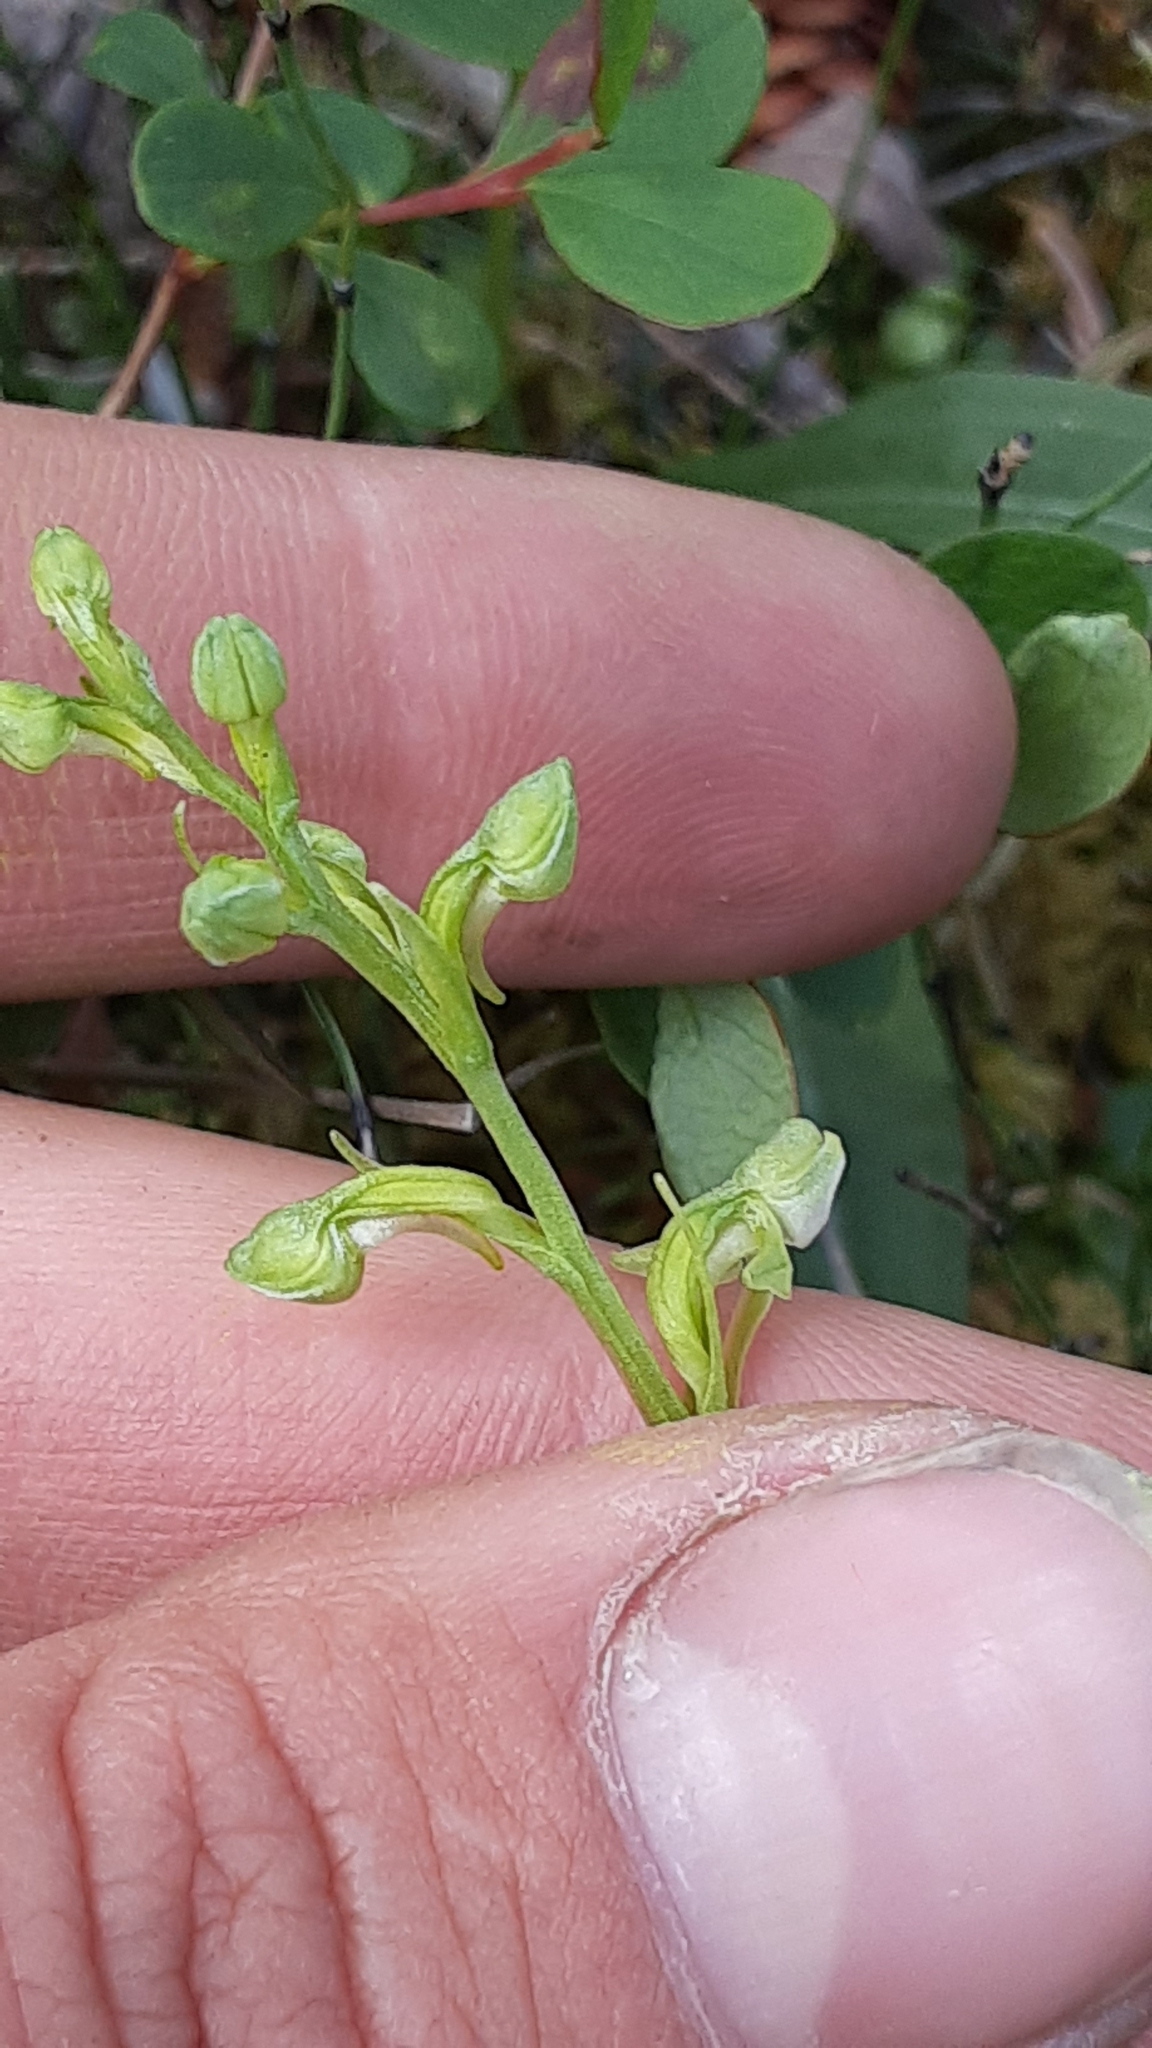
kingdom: Plantae
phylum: Tracheophyta
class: Liliopsida
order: Asparagales
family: Orchidaceae
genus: Platanthera
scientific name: Platanthera obtusata
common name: Blunt bog orchid
